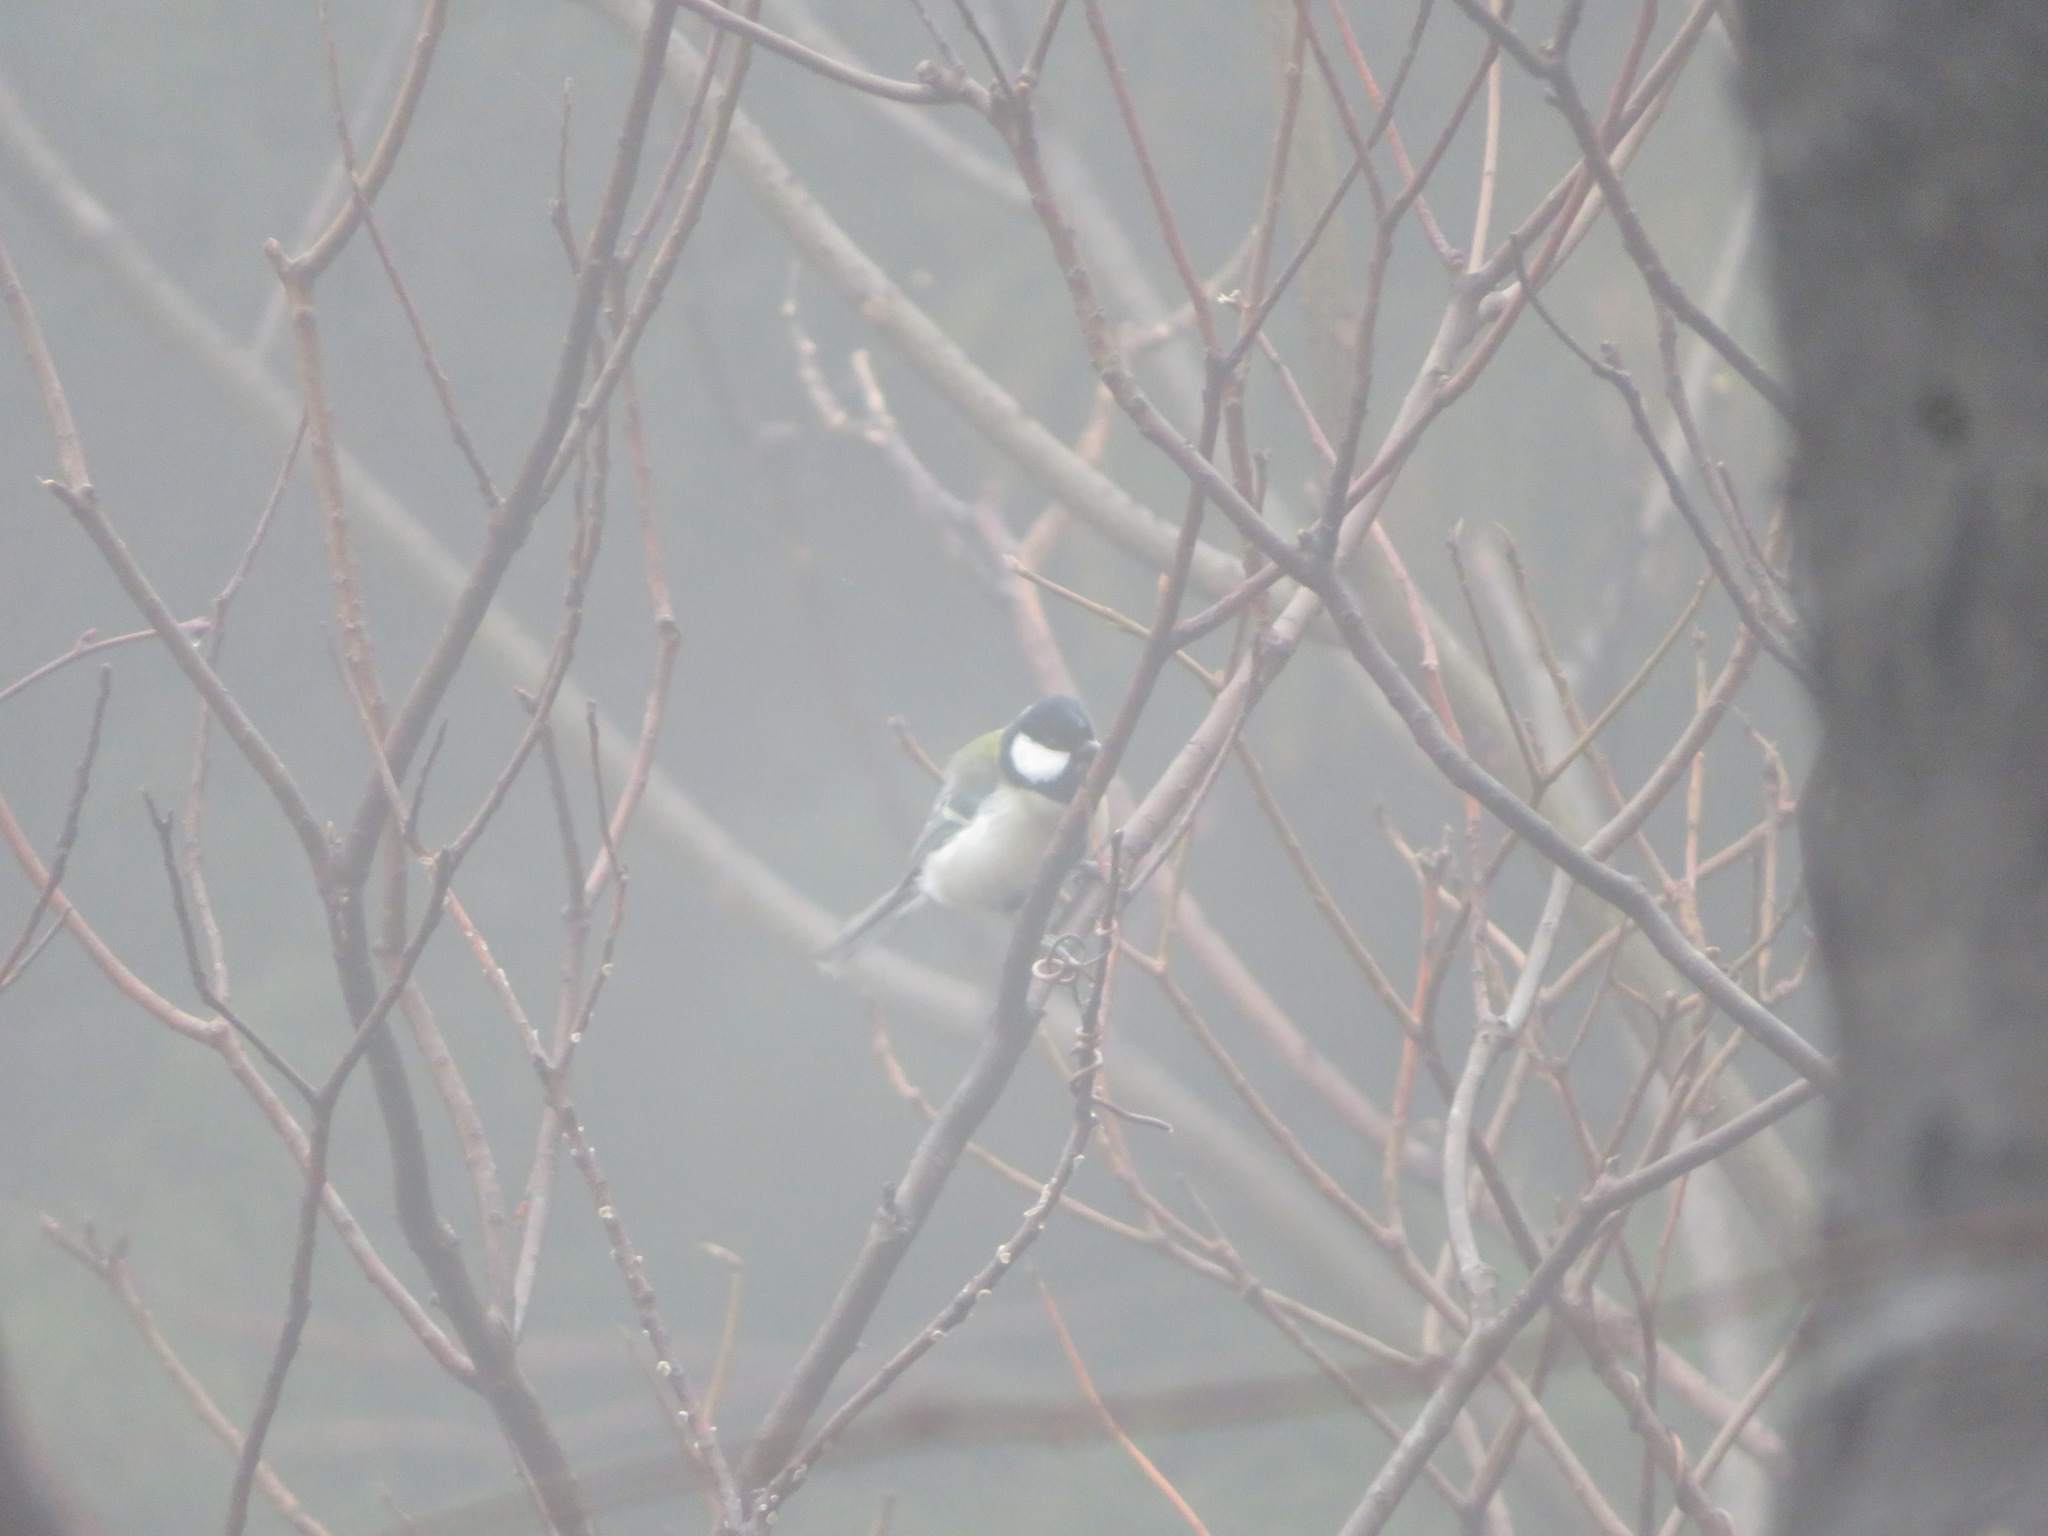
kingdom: Animalia
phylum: Chordata
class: Aves
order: Passeriformes
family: Paridae
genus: Parus
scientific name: Parus minor
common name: Japanese tit
